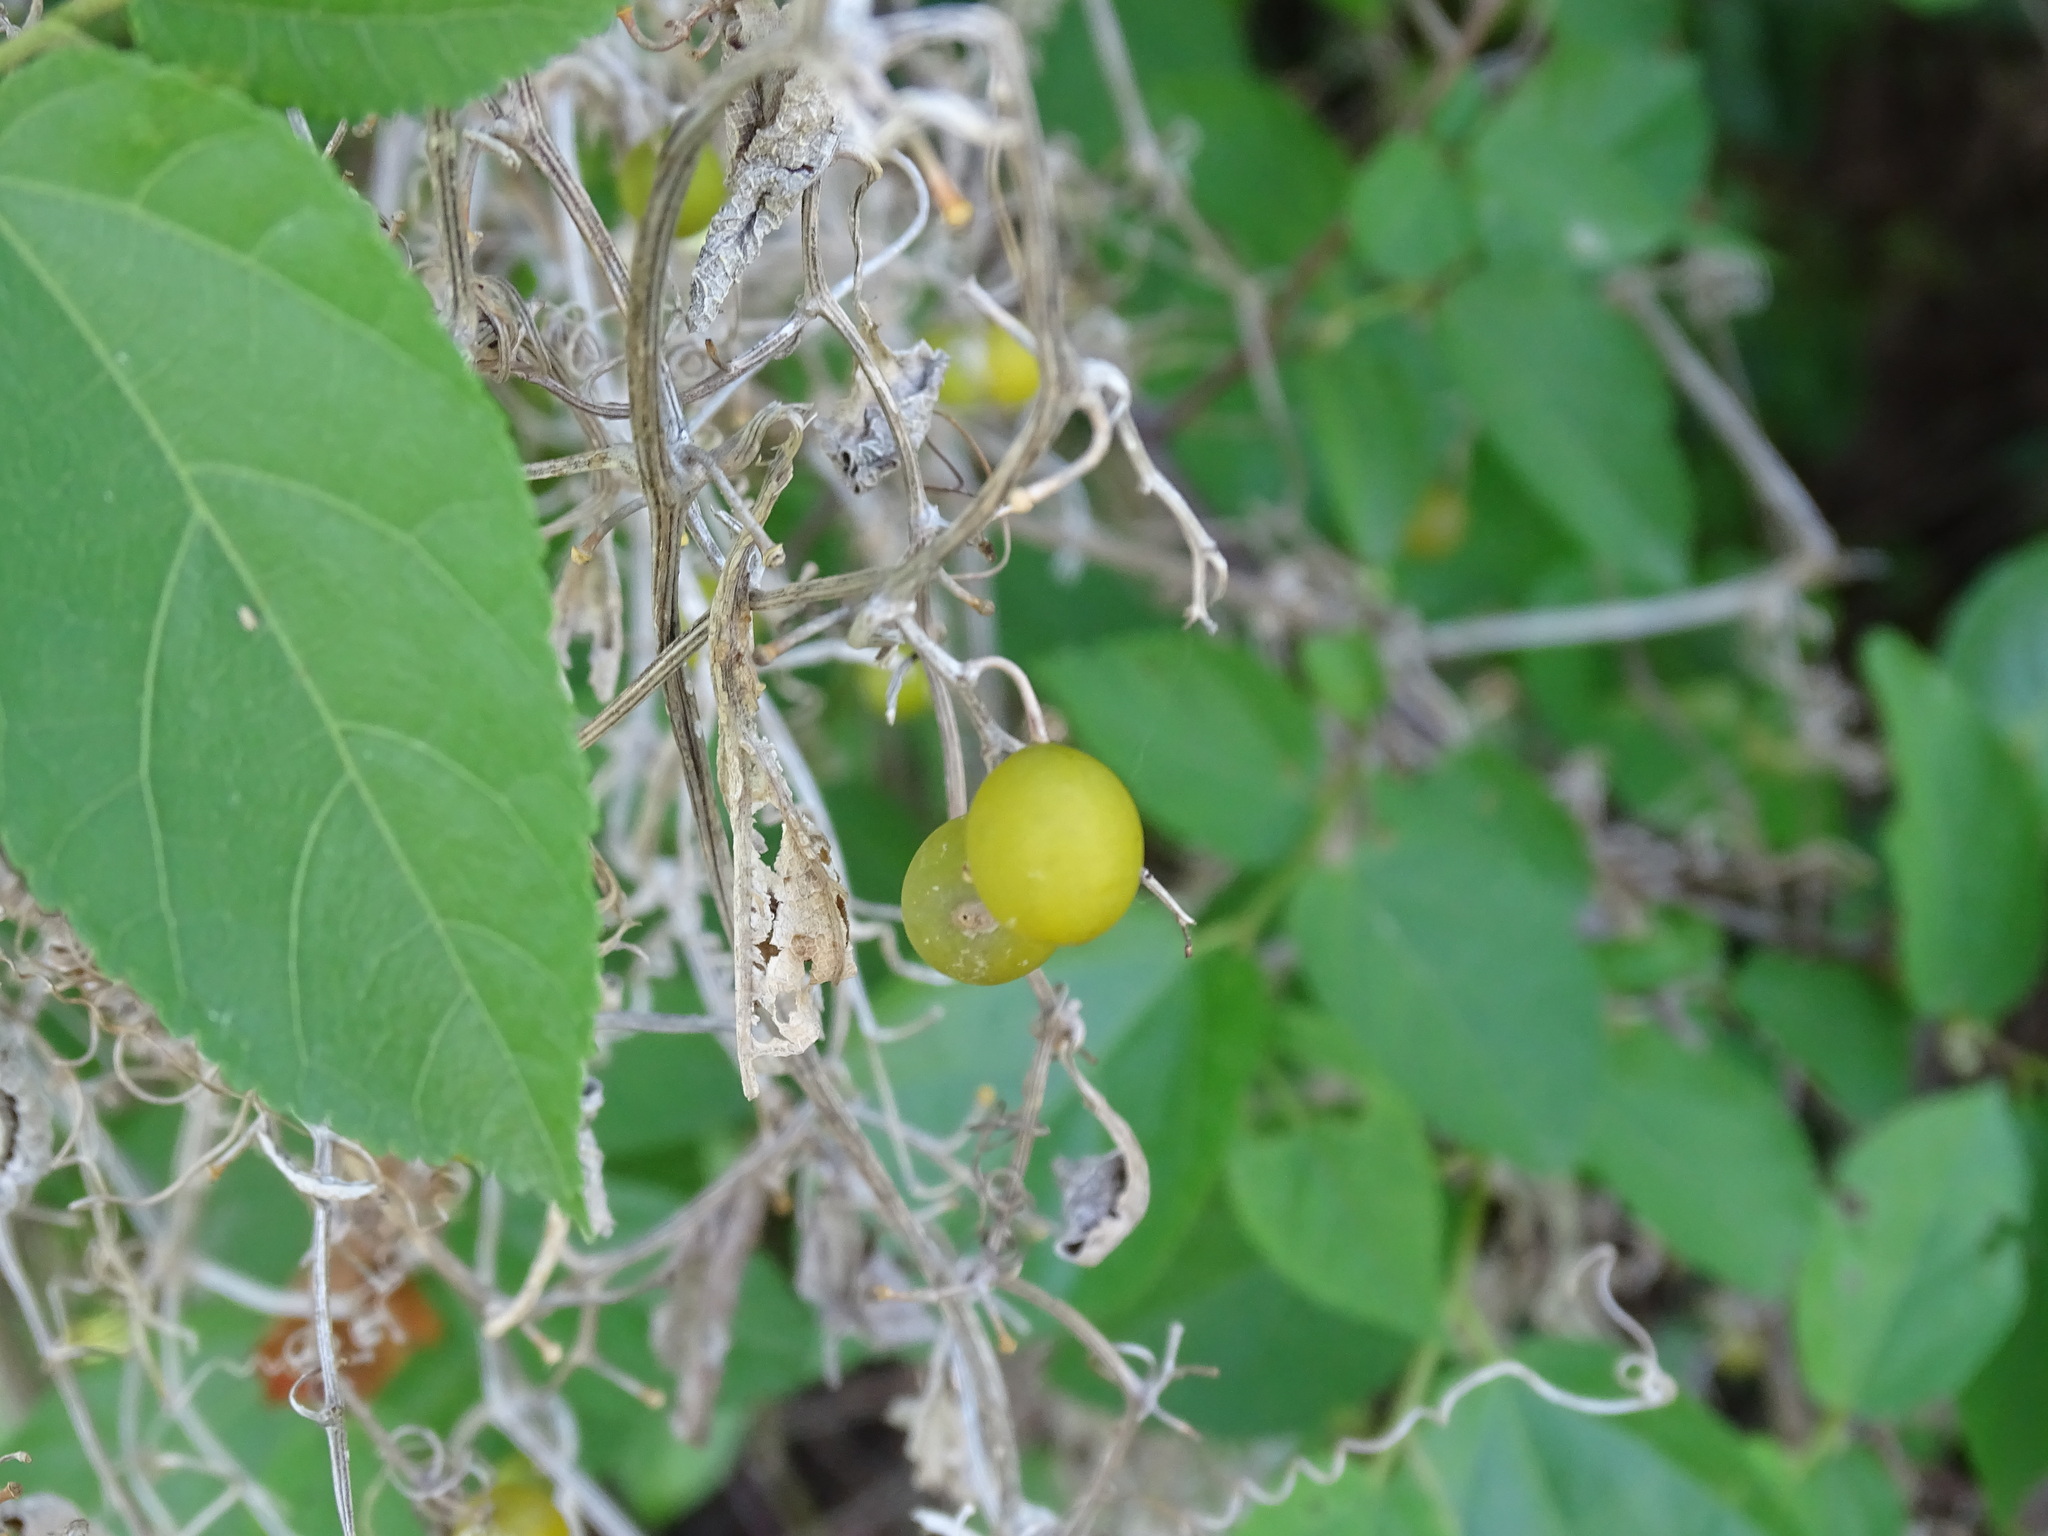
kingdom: Plantae
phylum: Tracheophyta
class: Magnoliopsida
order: Cucurbitales
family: Cucurbitaceae
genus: Cayaponia
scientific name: Cayaponia attenuata
